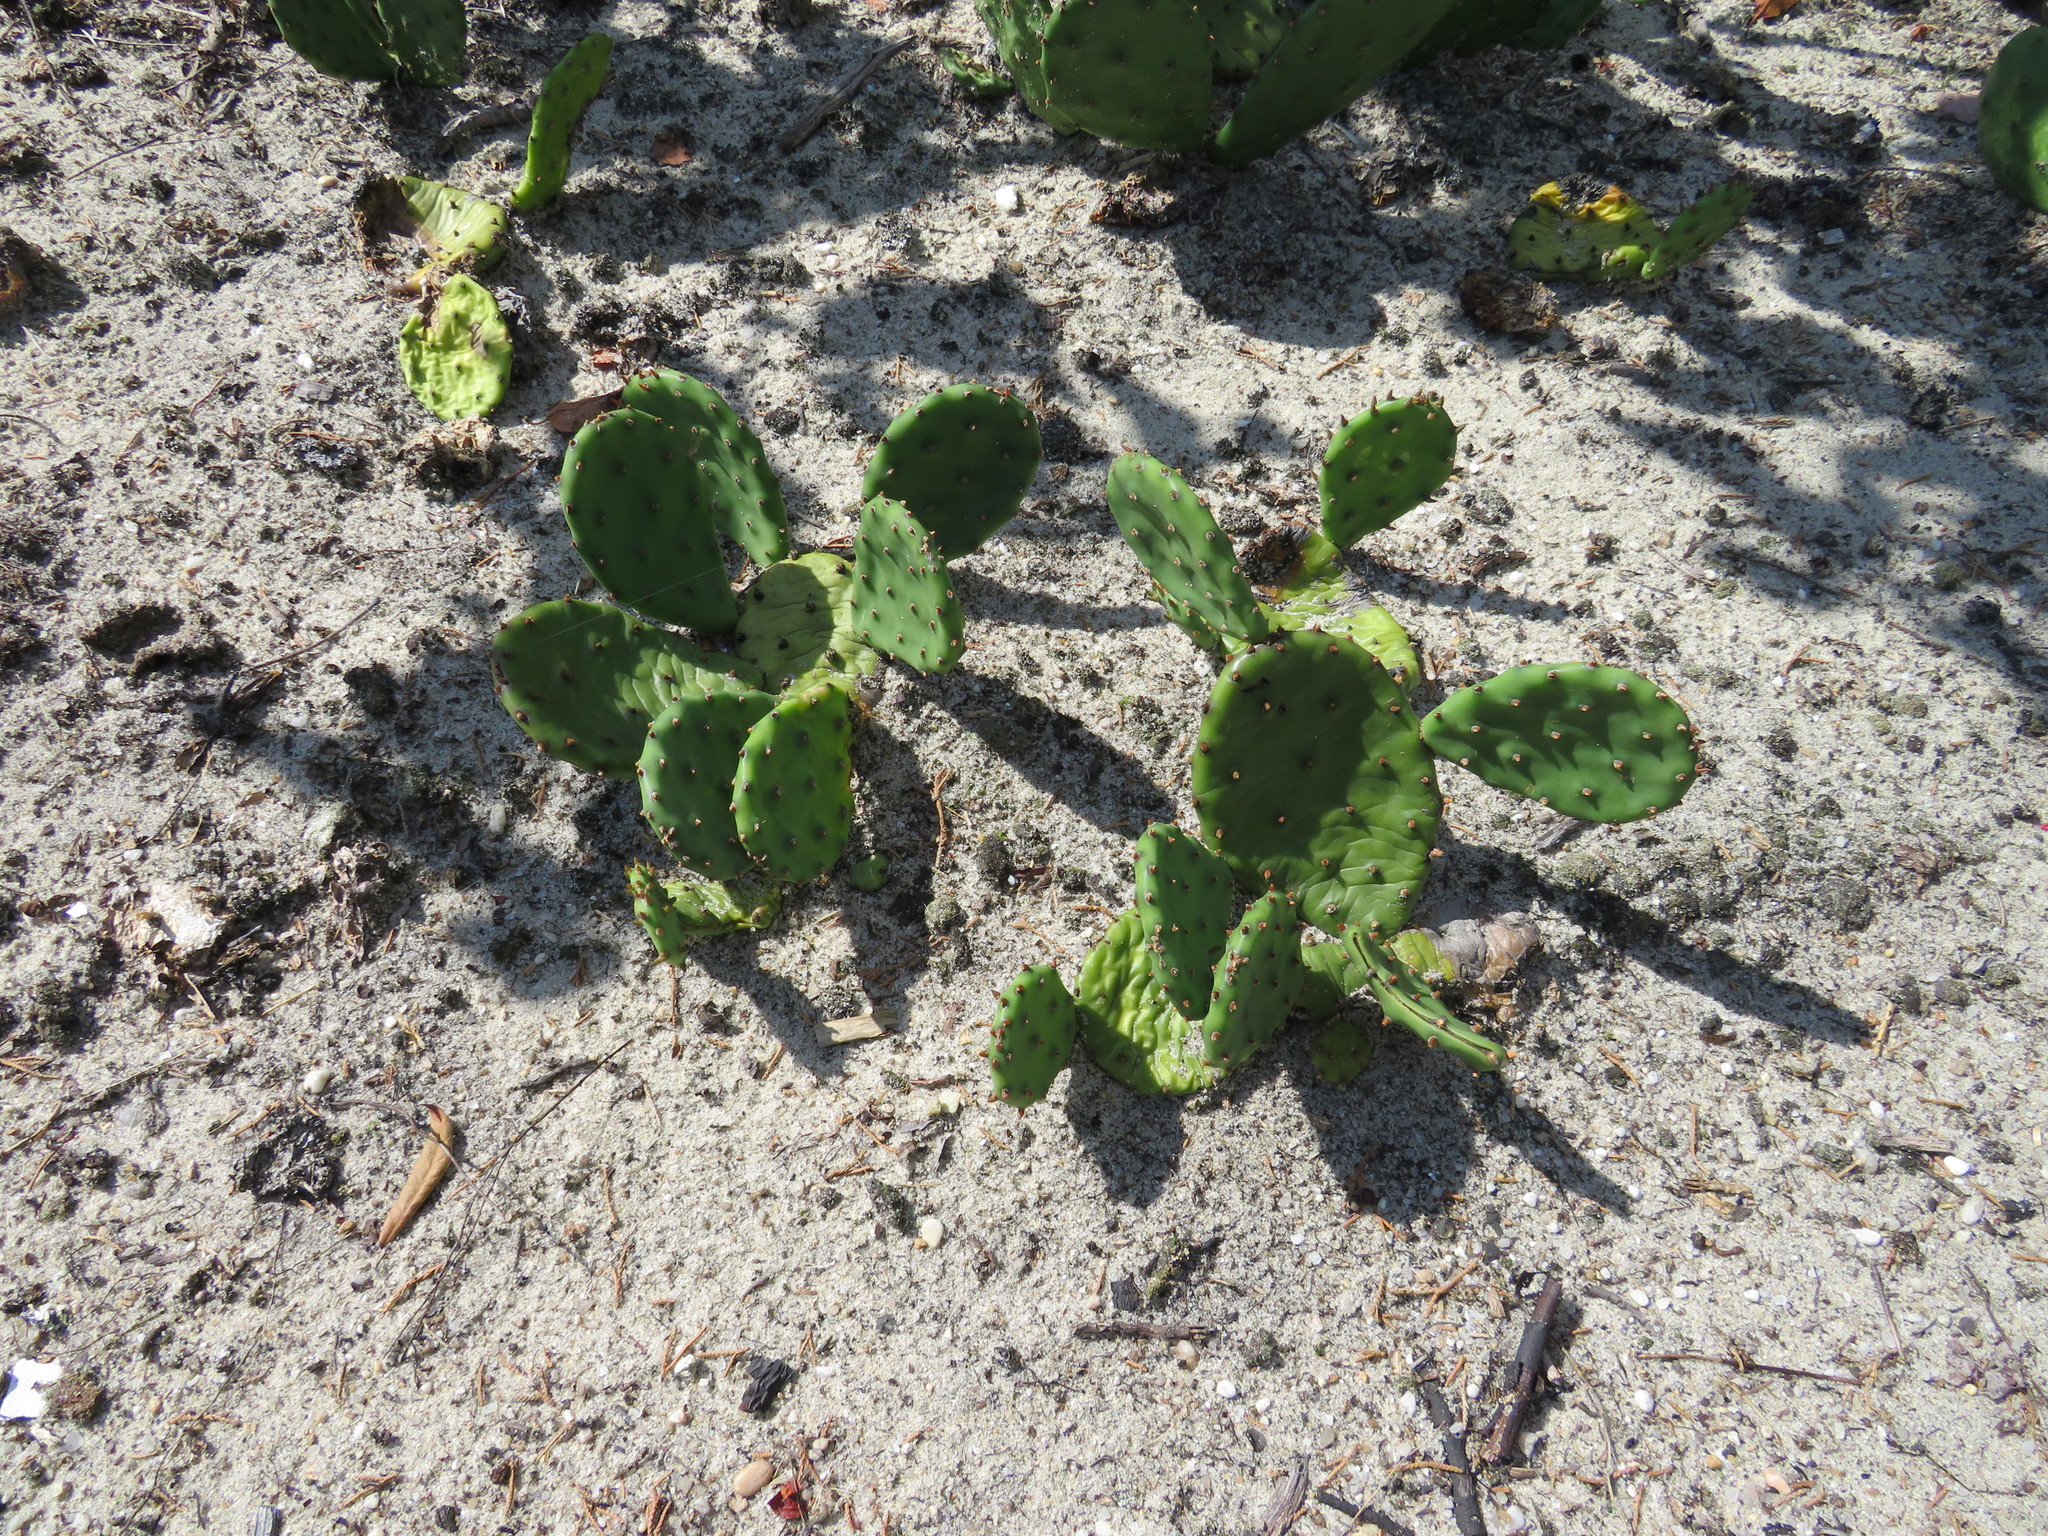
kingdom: Plantae
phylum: Tracheophyta
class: Magnoliopsida
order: Caryophyllales
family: Cactaceae
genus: Opuntia
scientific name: Opuntia humifusa
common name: Eastern prickly-pear
